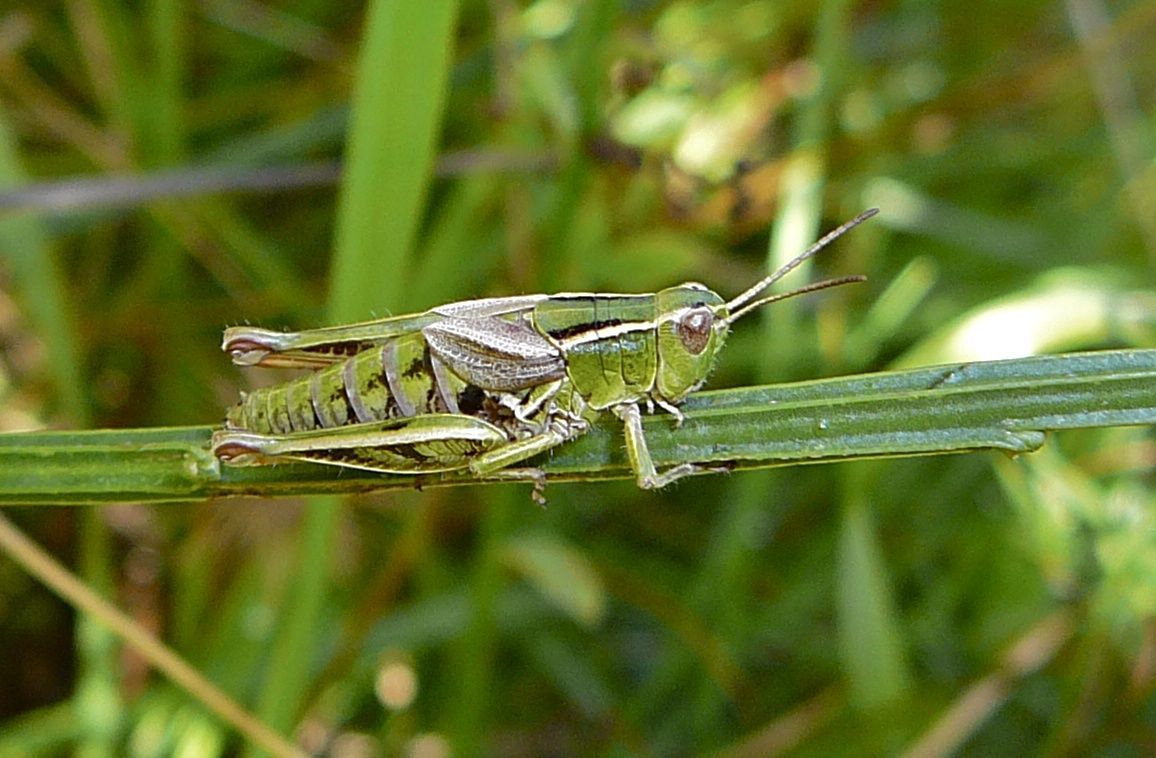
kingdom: Animalia
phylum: Arthropoda
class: Insecta
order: Orthoptera
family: Acrididae
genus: Phaulacridium
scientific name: Phaulacridium marginale
